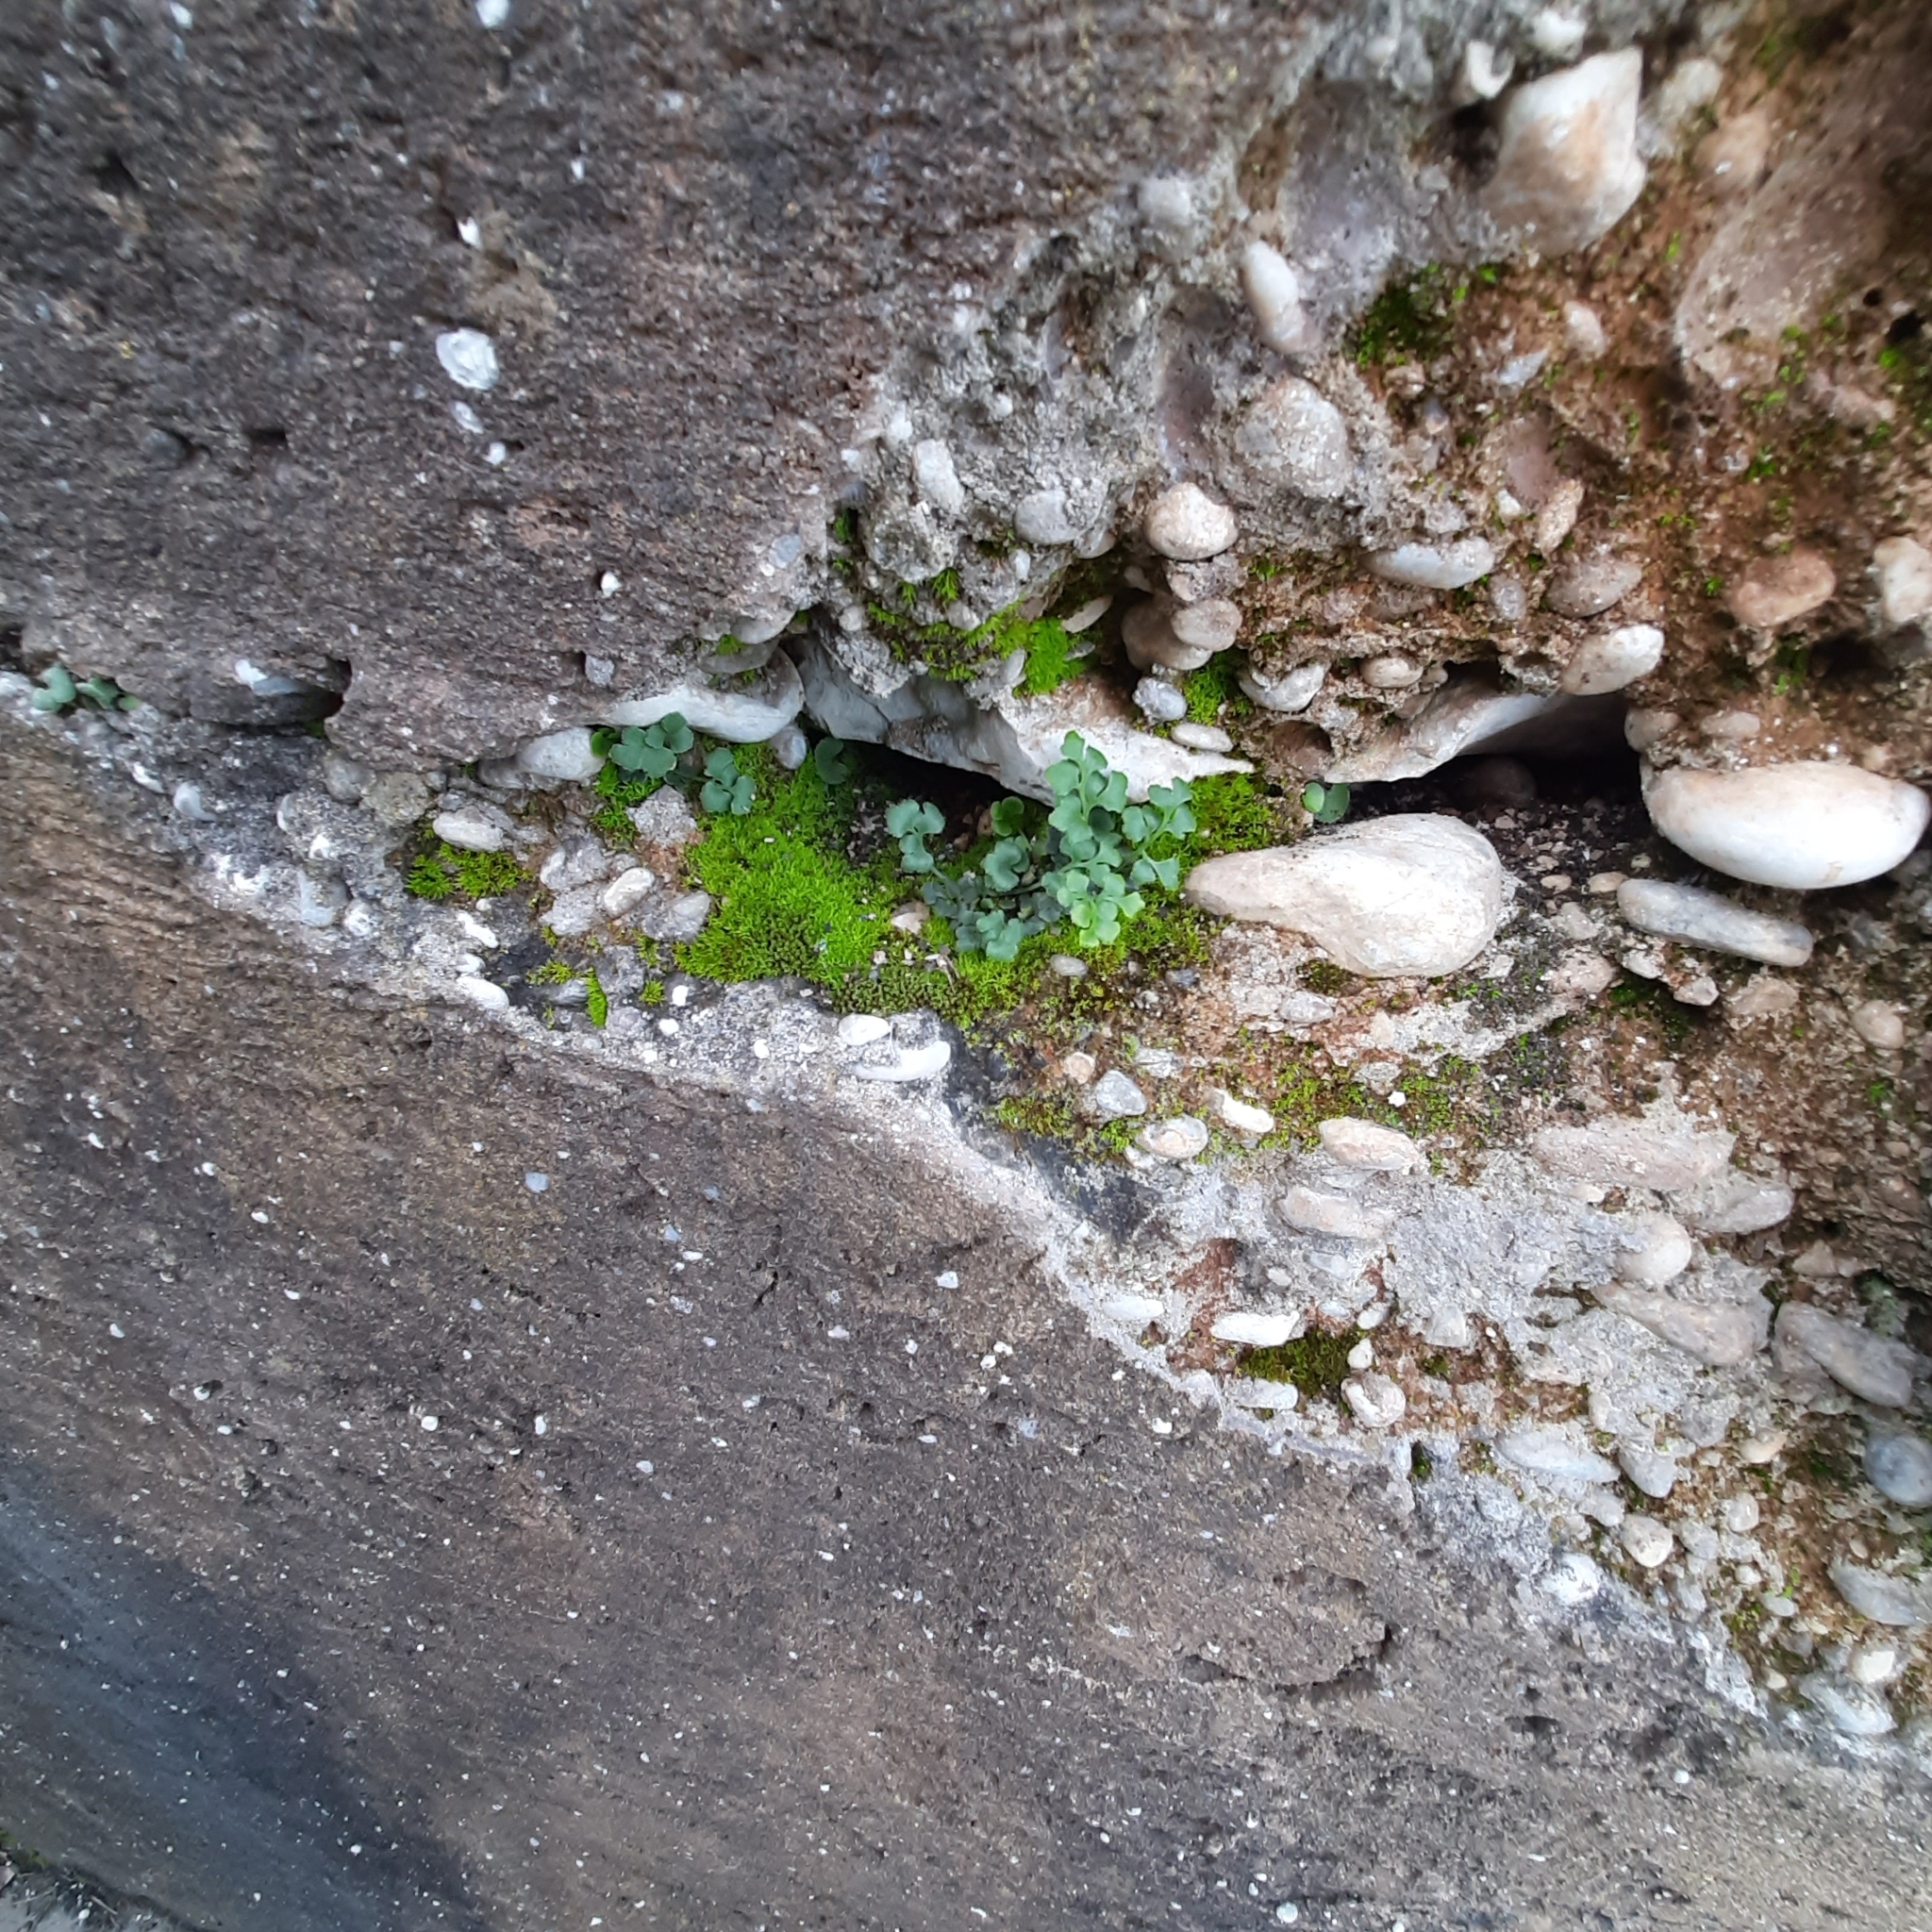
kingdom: Plantae
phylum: Tracheophyta
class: Polypodiopsida
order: Polypodiales
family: Aspleniaceae
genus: Asplenium
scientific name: Asplenium ruta-muraria
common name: Wall-rue
